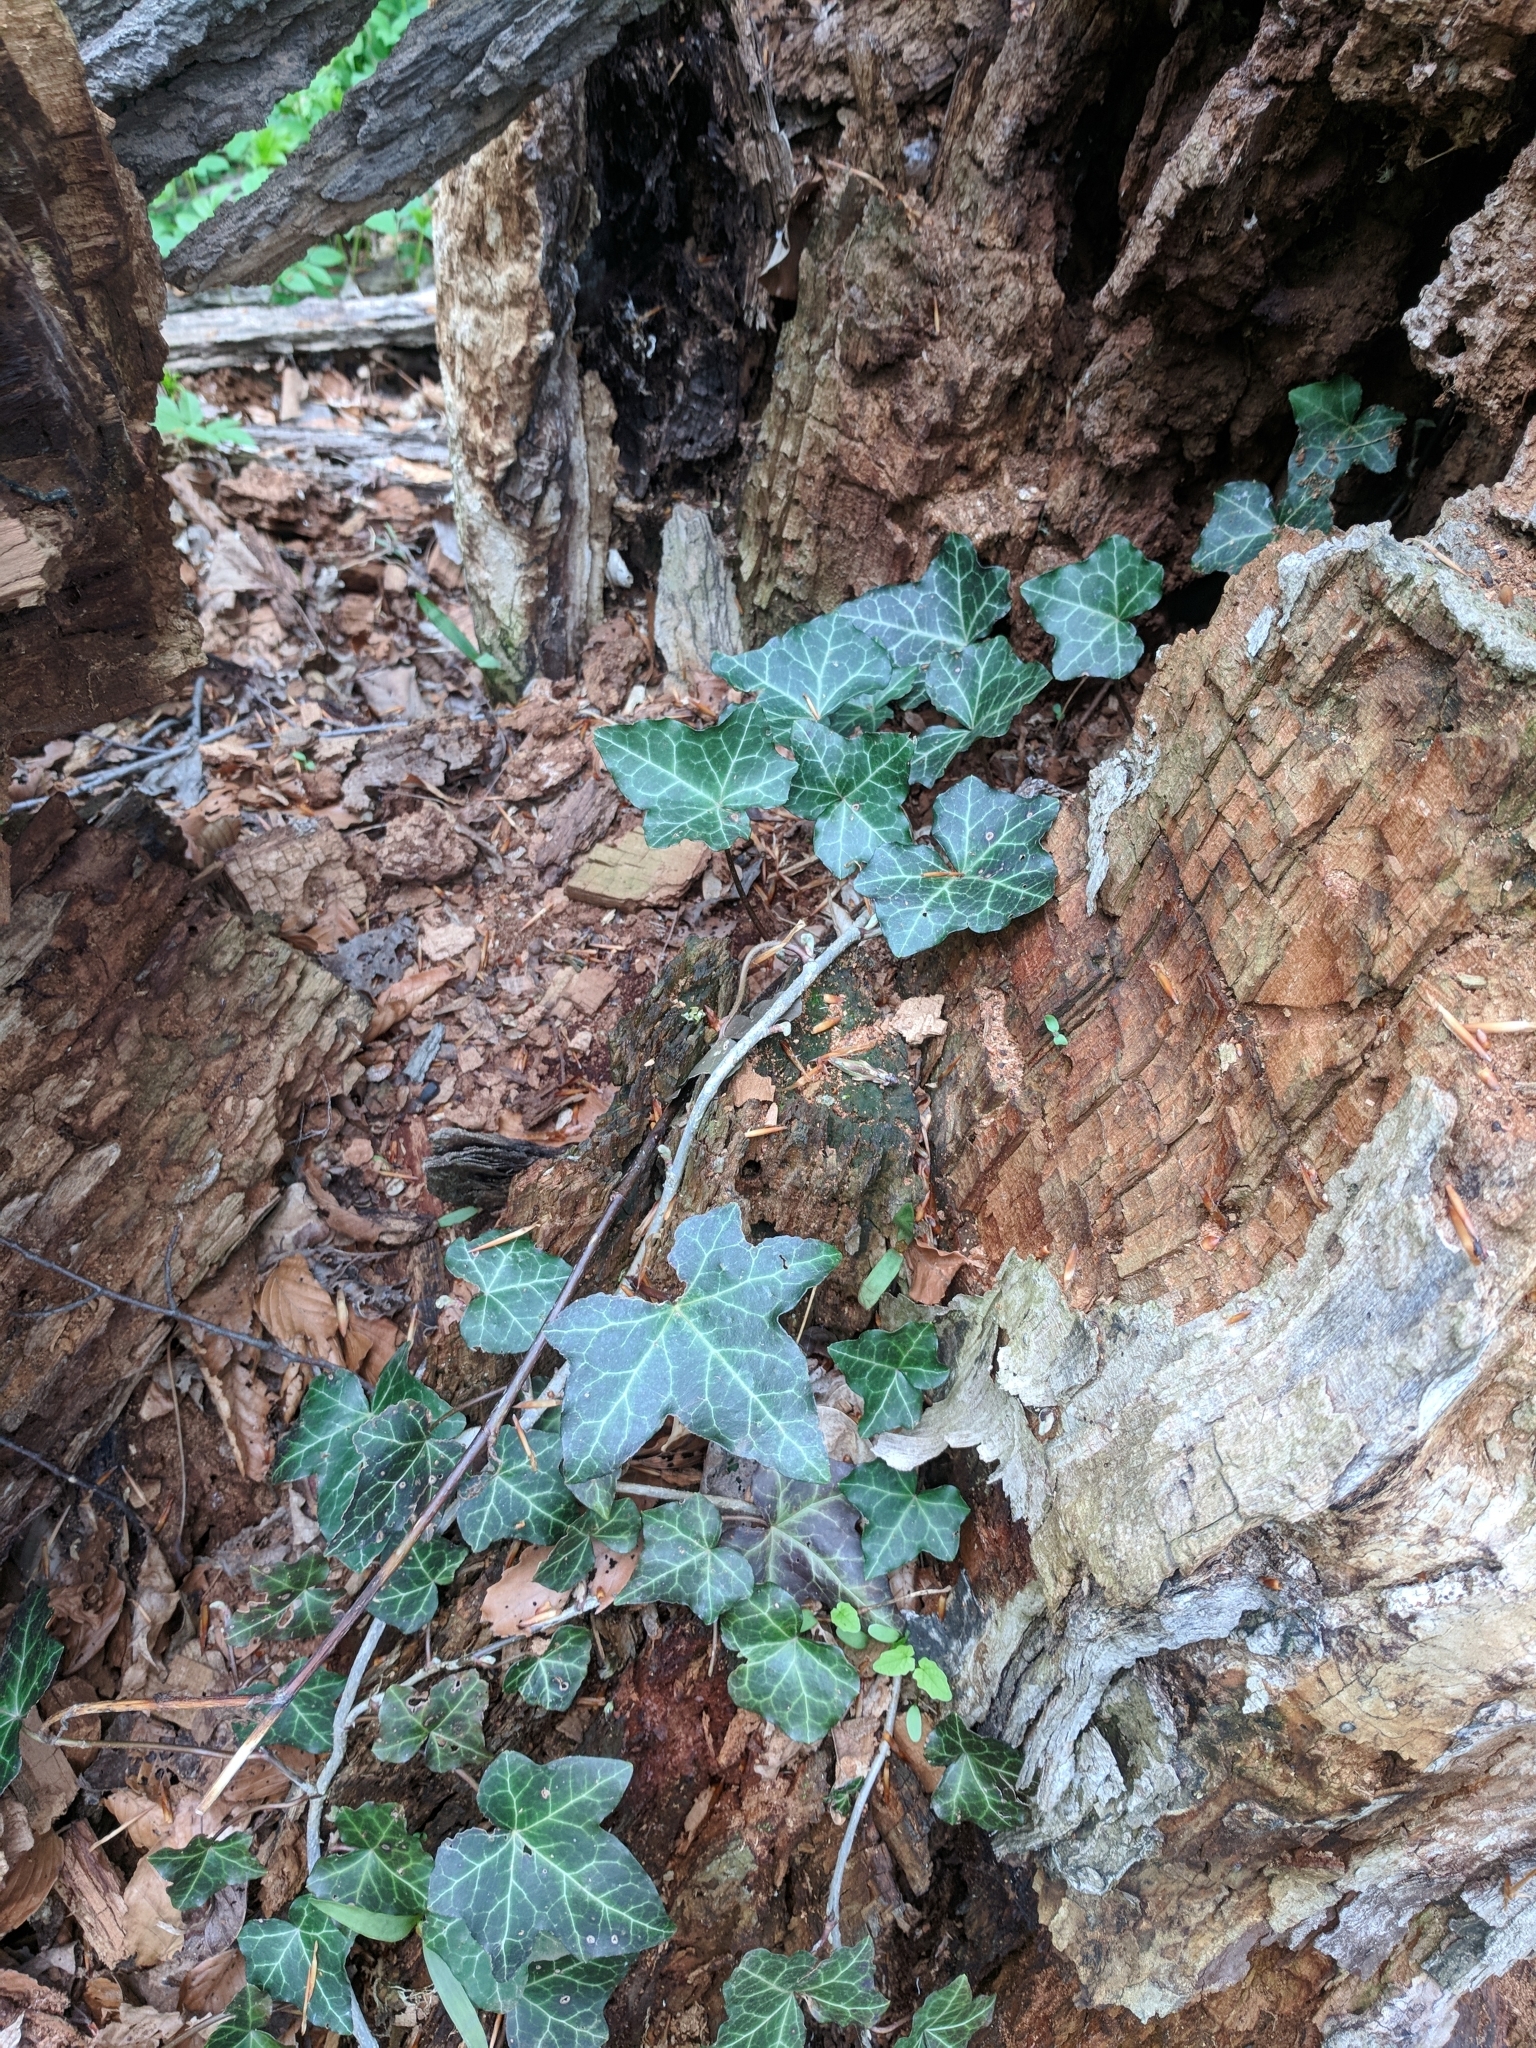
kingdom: Plantae
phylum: Tracheophyta
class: Magnoliopsida
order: Apiales
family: Araliaceae
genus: Hedera
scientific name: Hedera helix
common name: Ivy
